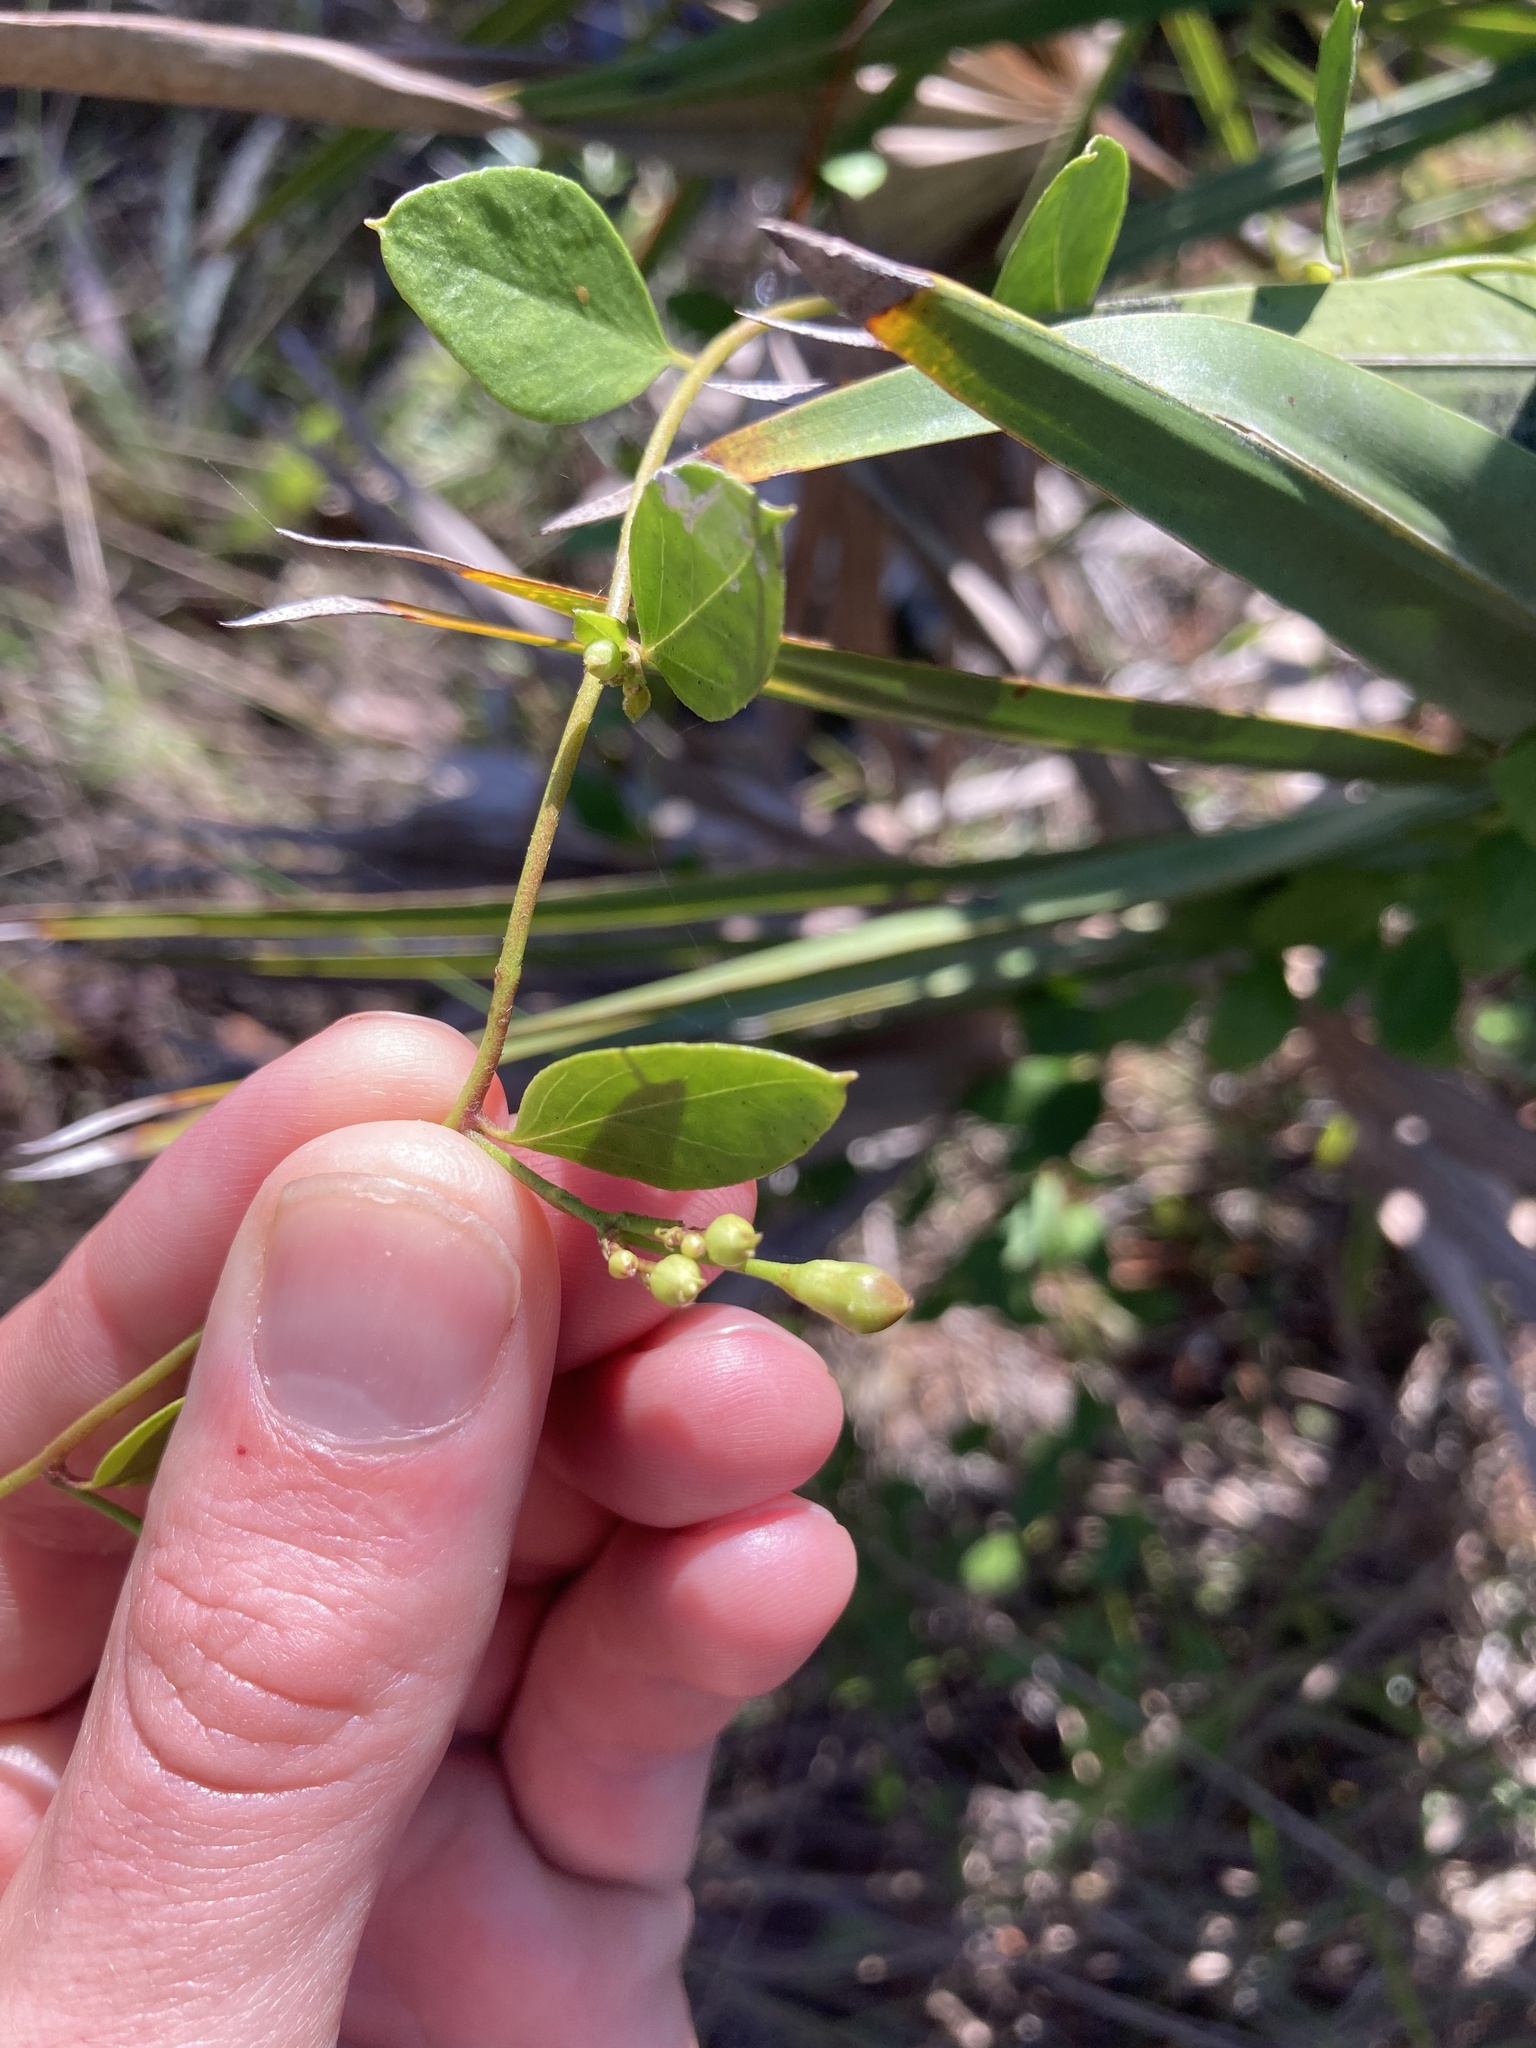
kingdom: Plantae
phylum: Tracheophyta
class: Magnoliopsida
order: Solanales
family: Convolvulaceae
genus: Jacquemontia
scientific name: Jacquemontia curtissii
